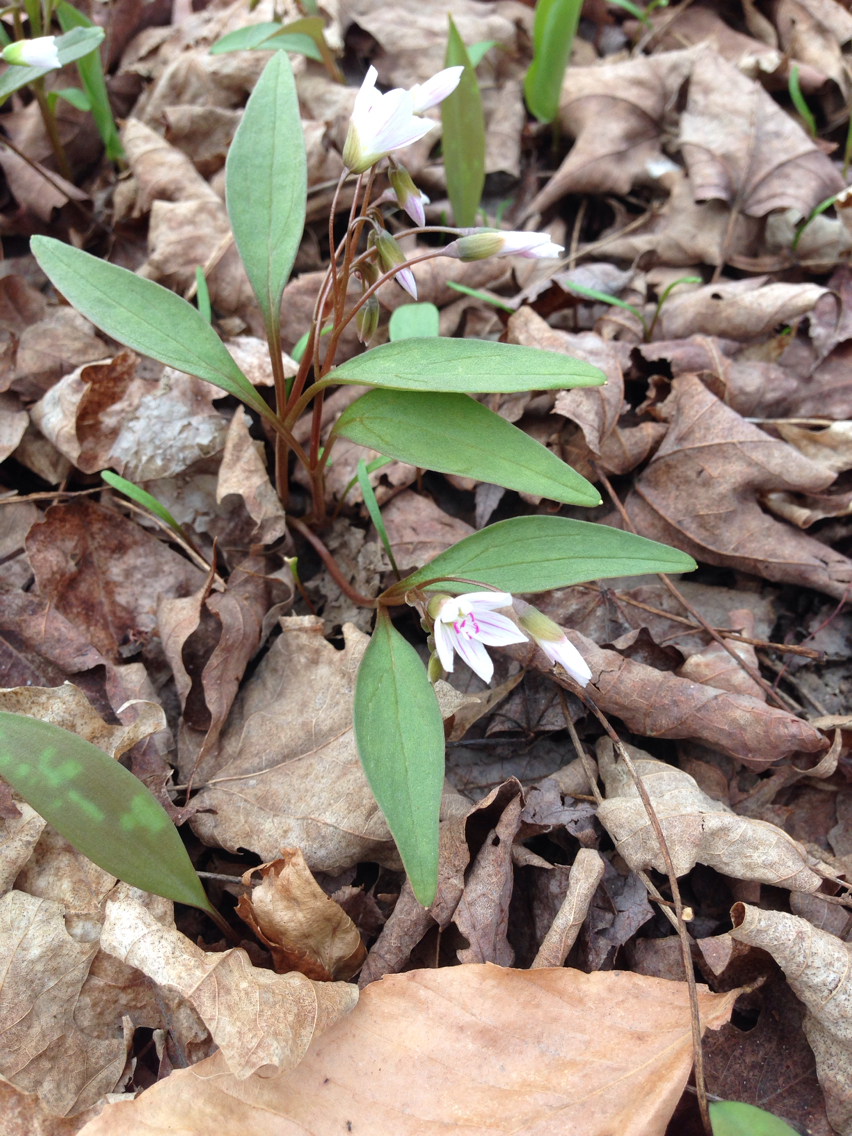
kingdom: Plantae
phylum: Tracheophyta
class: Magnoliopsida
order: Caryophyllales
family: Montiaceae
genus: Claytonia
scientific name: Claytonia caroliniana
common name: Carolina spring beauty
